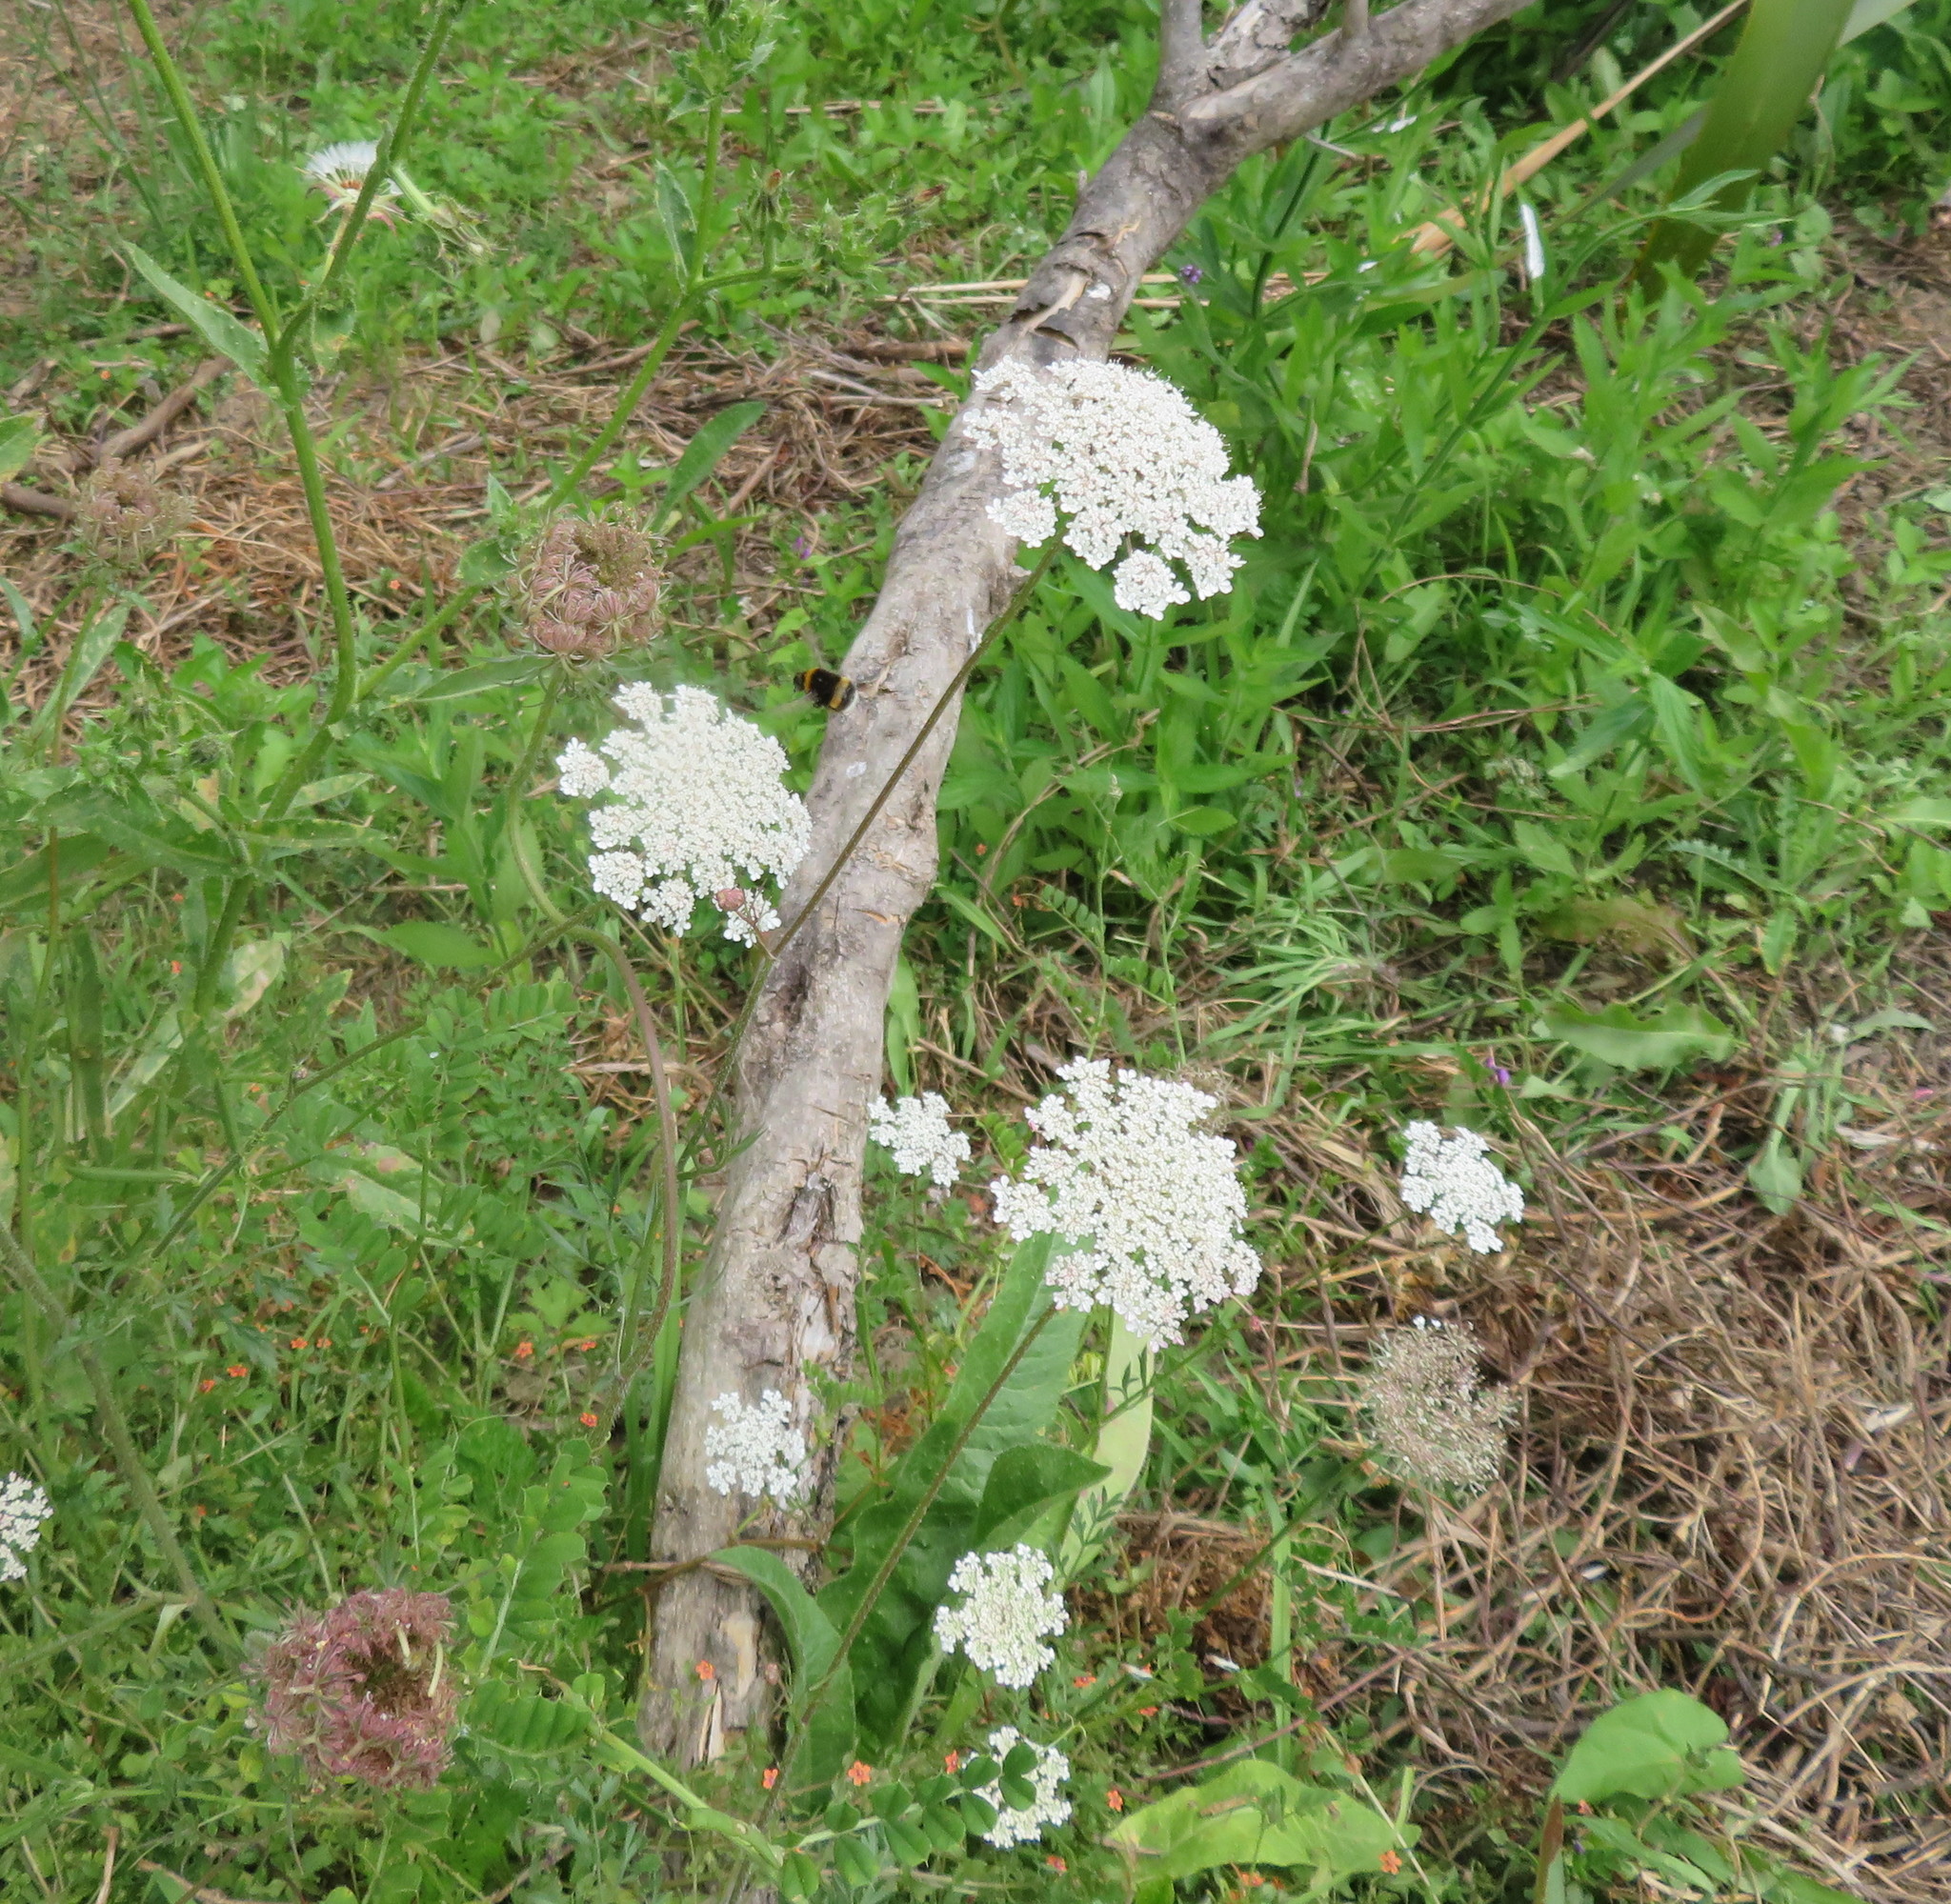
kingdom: Animalia
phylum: Arthropoda
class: Insecta
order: Hymenoptera
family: Apidae
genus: Bombus
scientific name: Bombus terrestris
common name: Buff-tailed bumblebee
